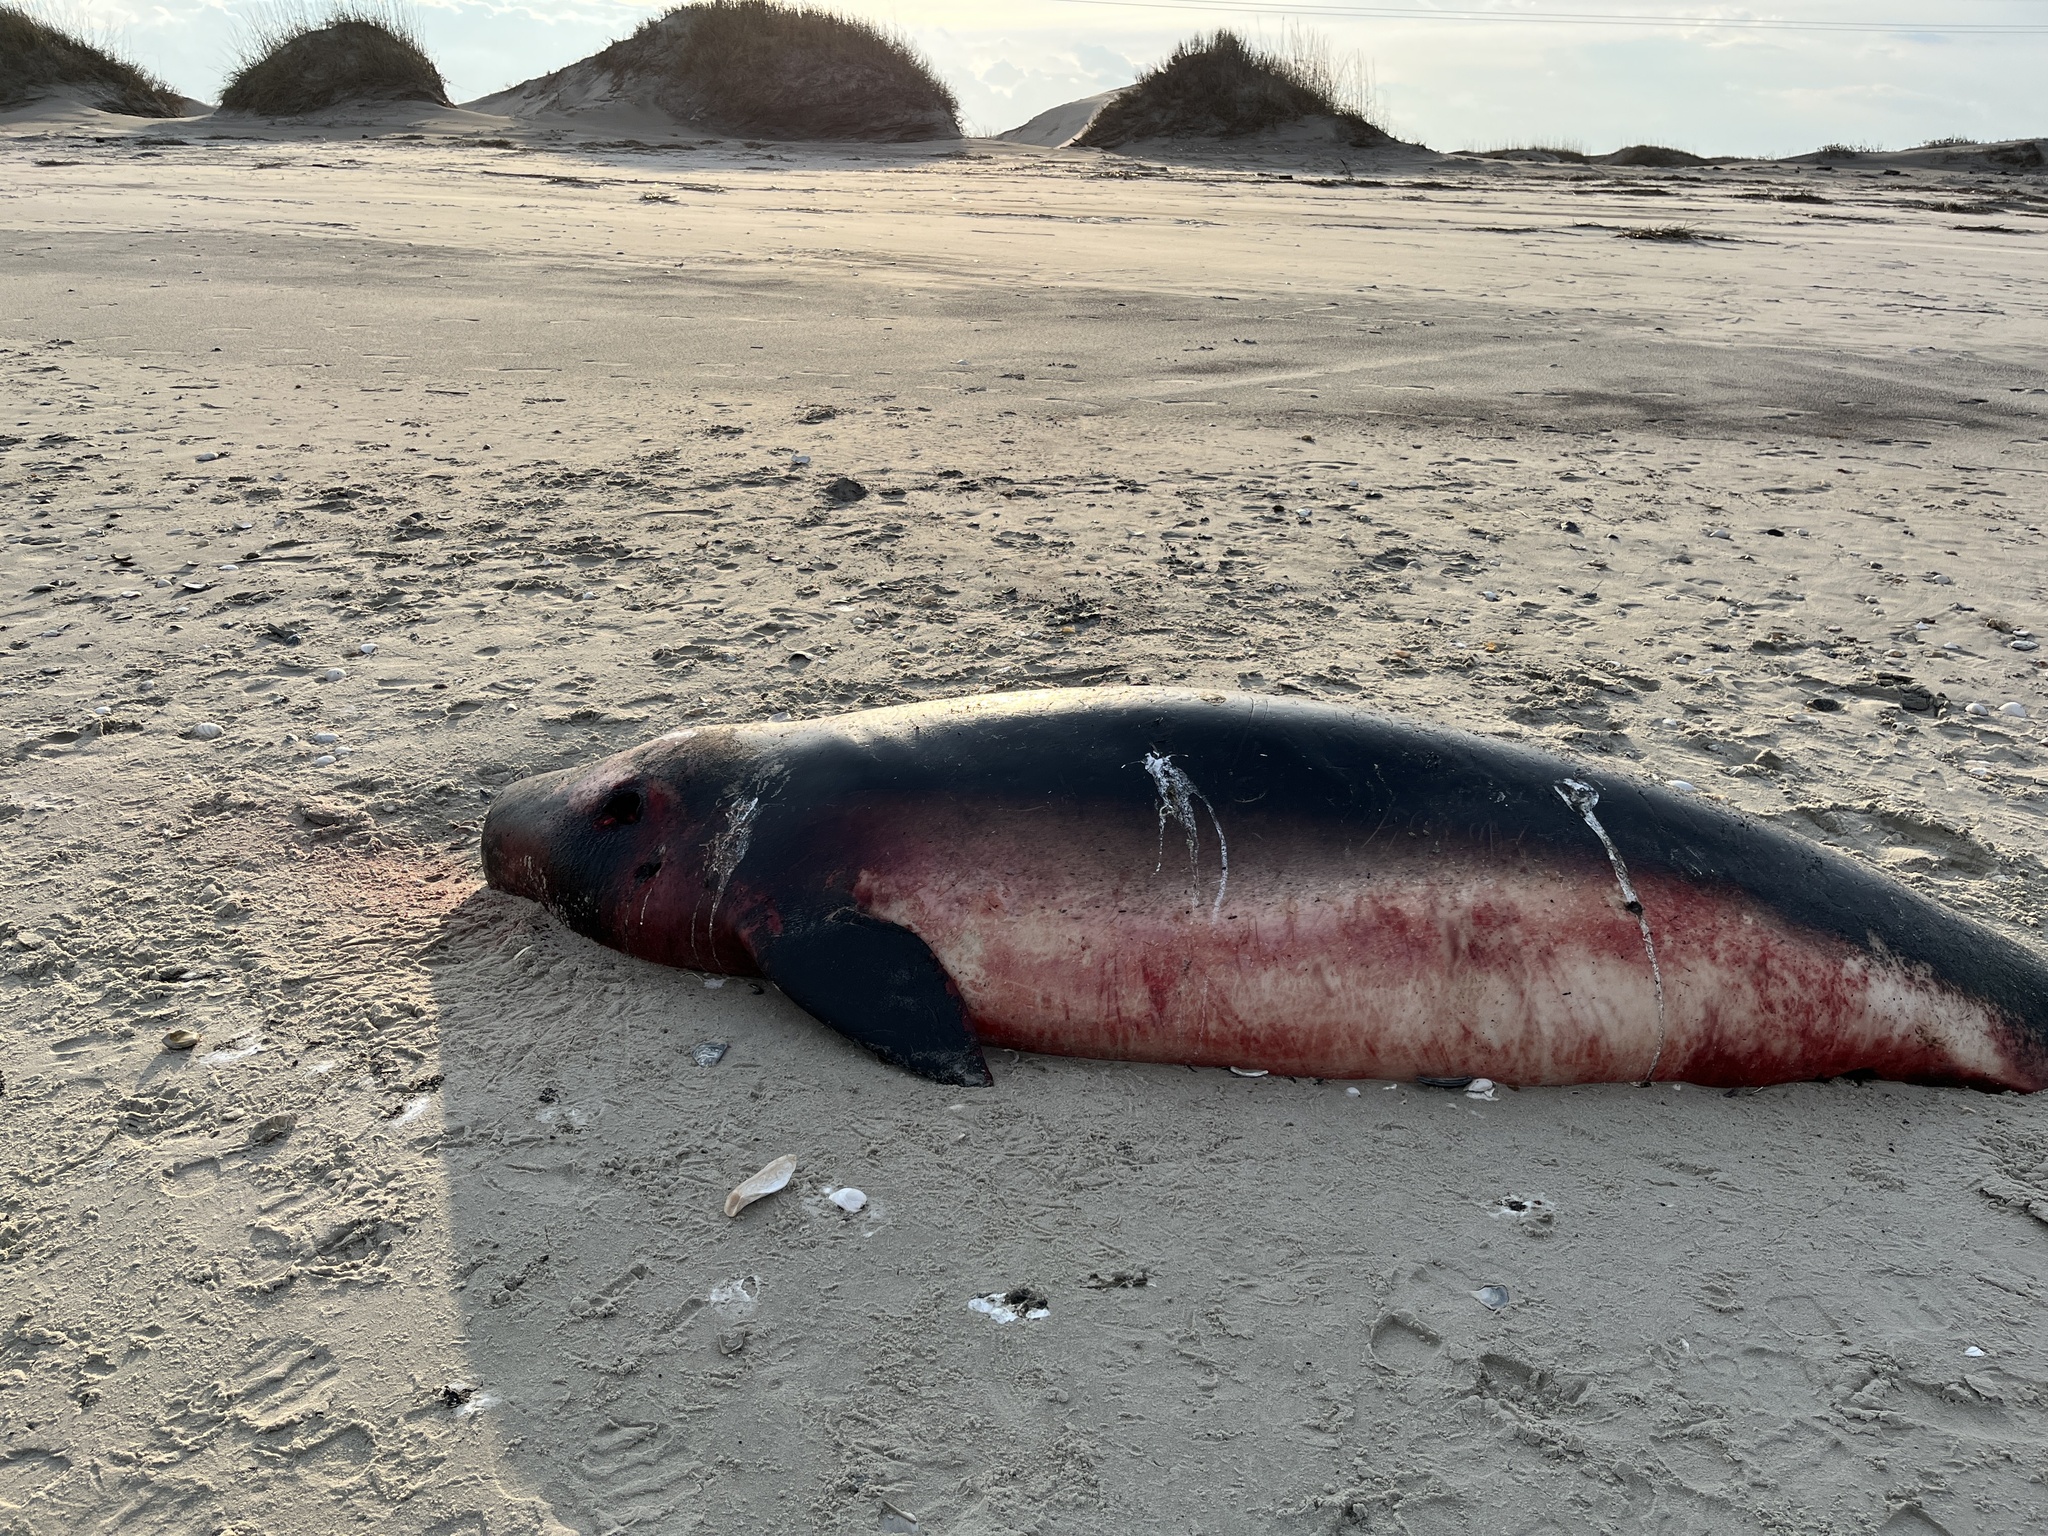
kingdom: Animalia
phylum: Chordata
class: Mammalia
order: Cetacea
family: Kogiidae
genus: Kogia
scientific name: Kogia breviceps
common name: Pygmy sperm whale
